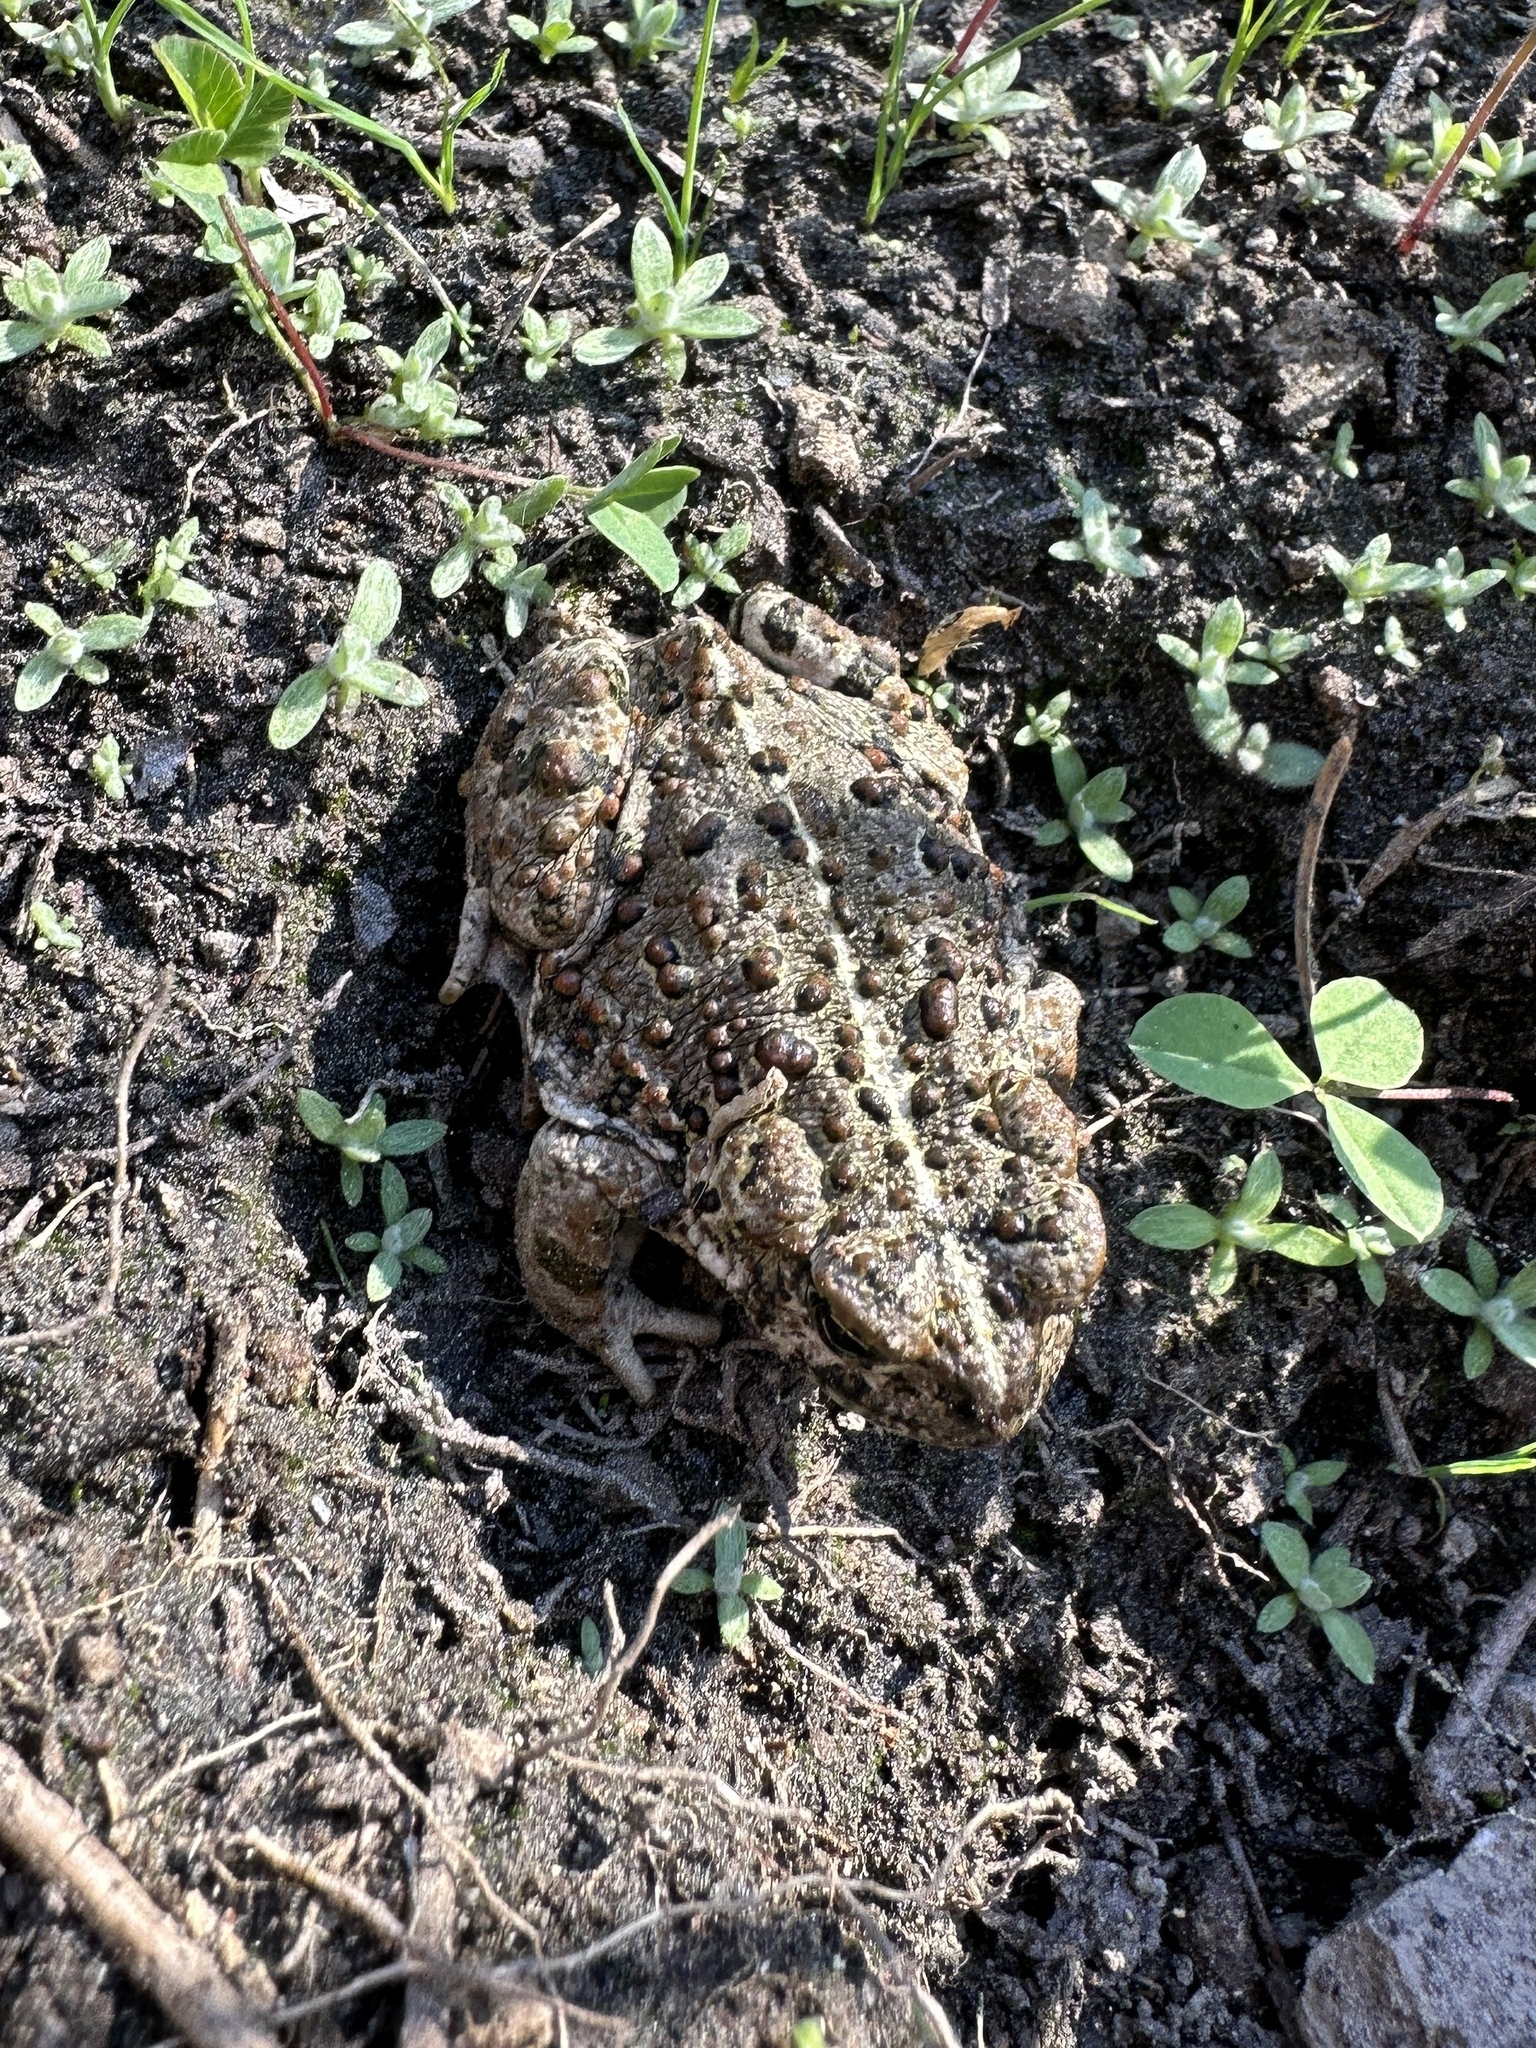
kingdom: Animalia
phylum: Chordata
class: Amphibia
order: Anura
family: Bufonidae
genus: Anaxyrus
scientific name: Anaxyrus boreas
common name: Western toad
